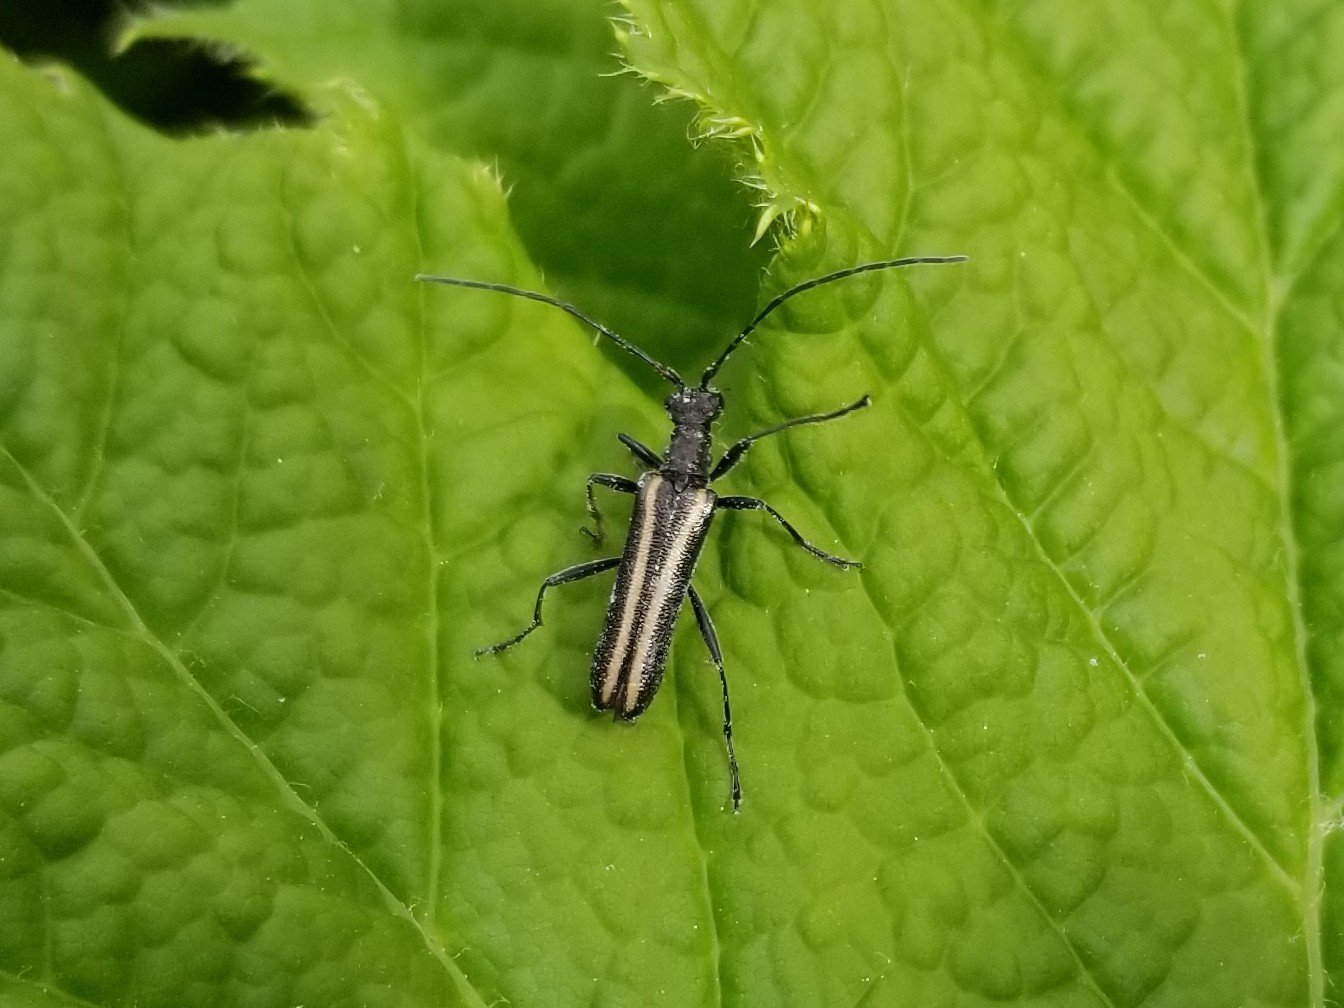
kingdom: Animalia
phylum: Arthropoda
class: Insecta
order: Coleoptera
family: Cerambycidae
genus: Leptalia
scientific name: Leptalia macilenta
